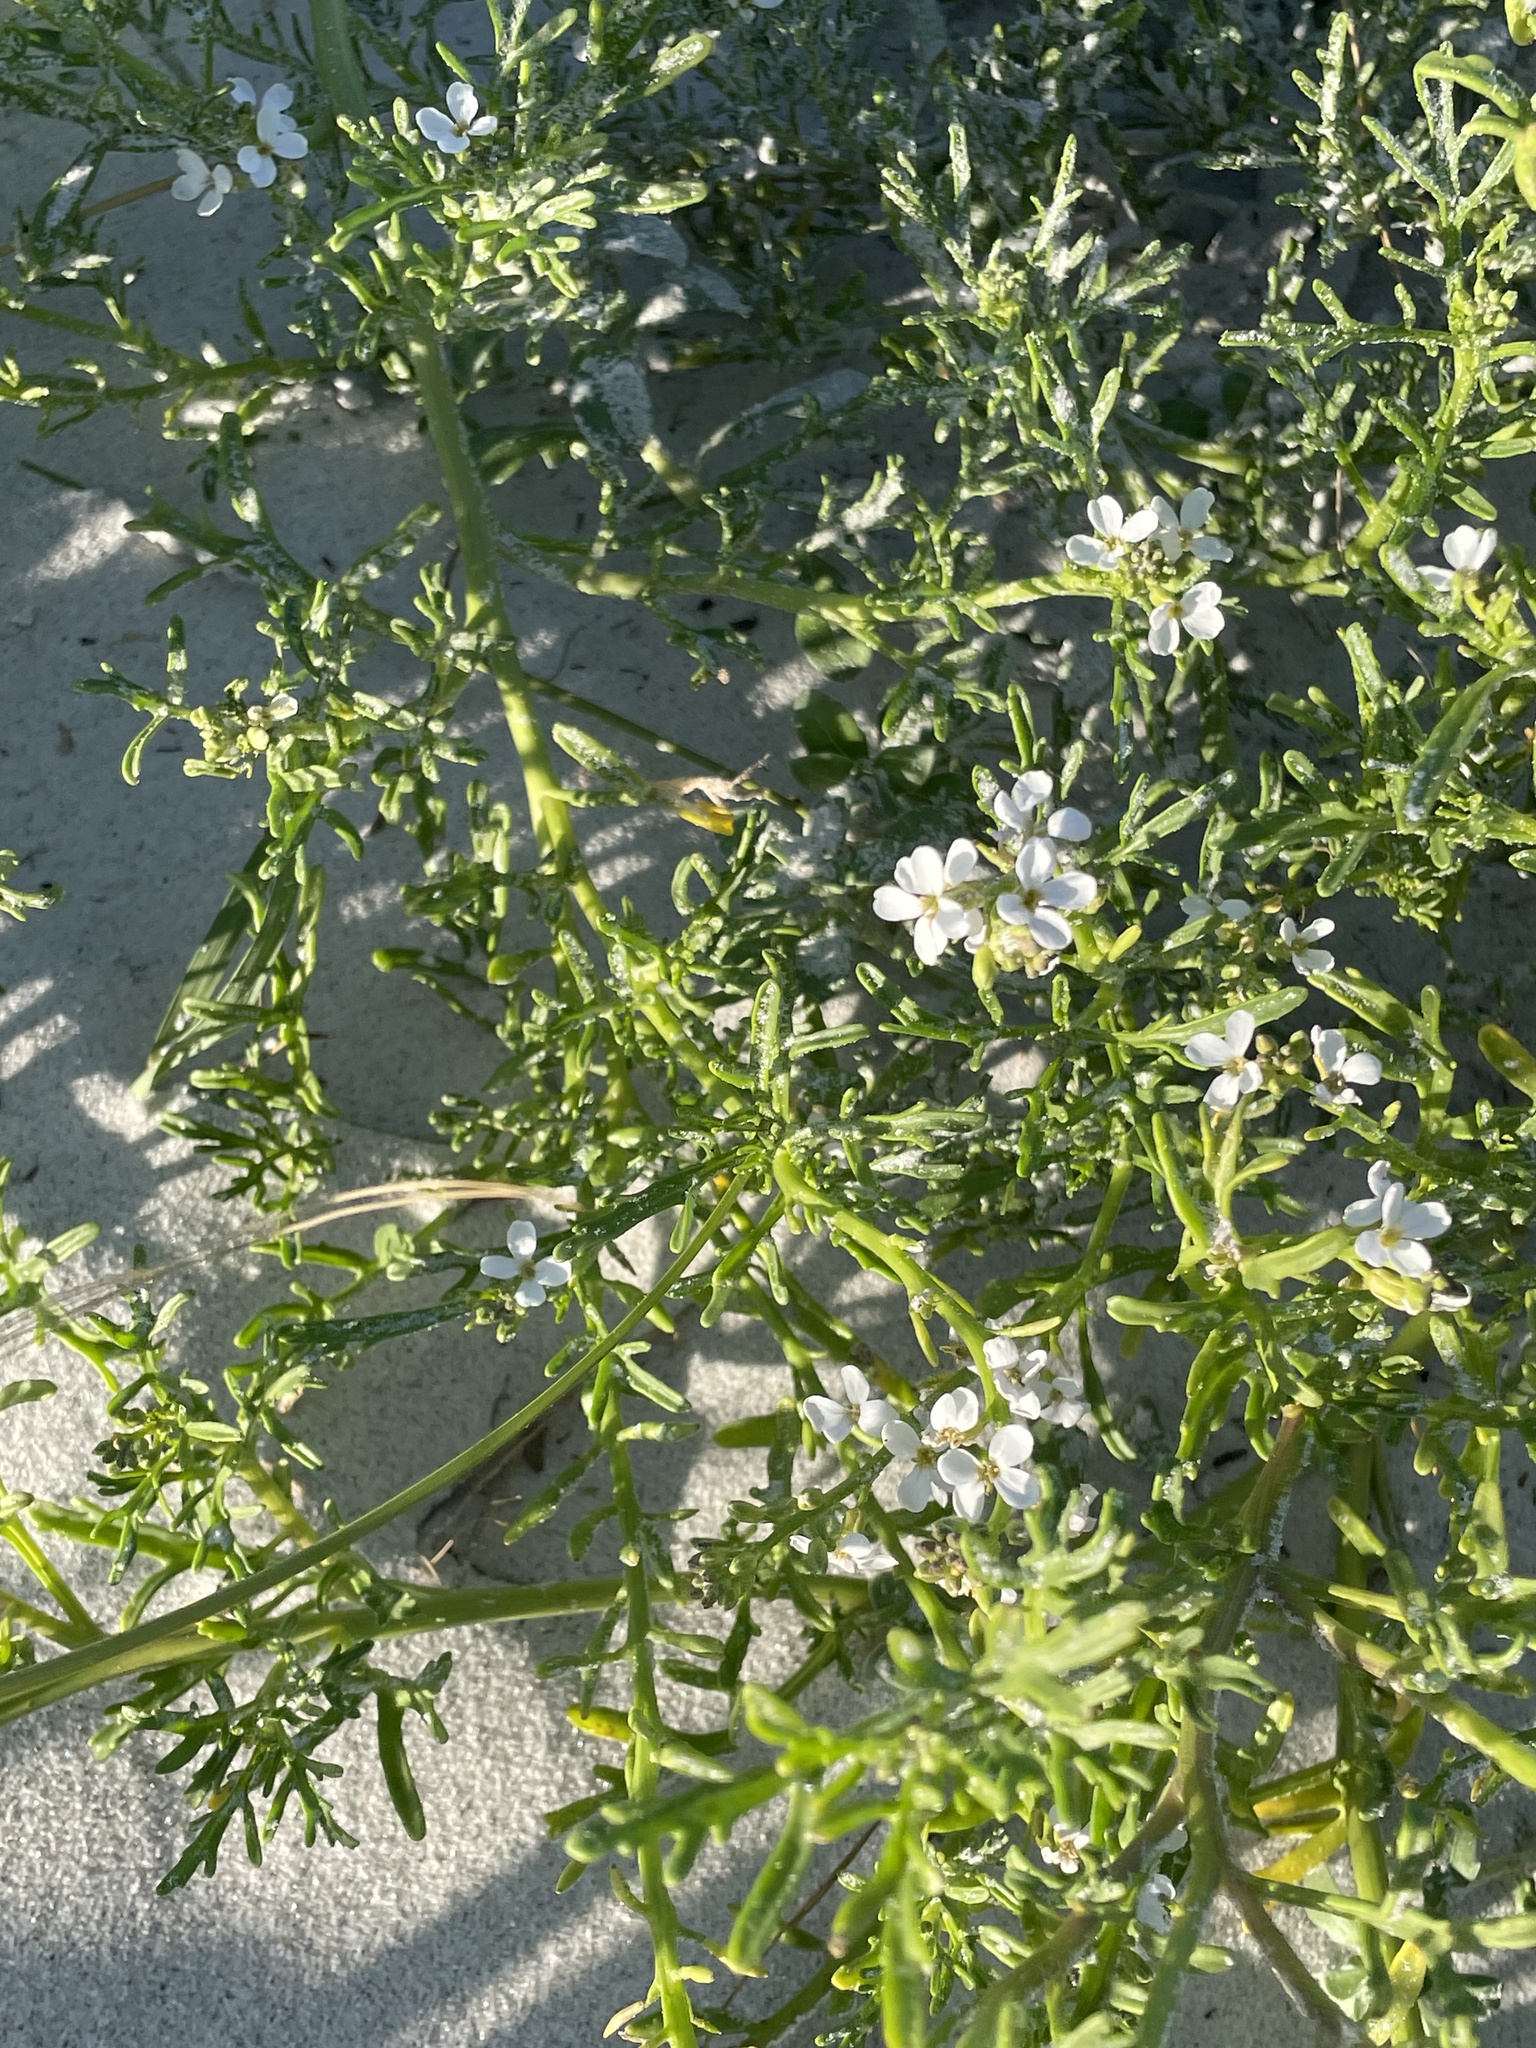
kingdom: Plantae
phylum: Tracheophyta
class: Magnoliopsida
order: Brassicales
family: Brassicaceae
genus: Cakile
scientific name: Cakile lanceolata
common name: Sea rocket
